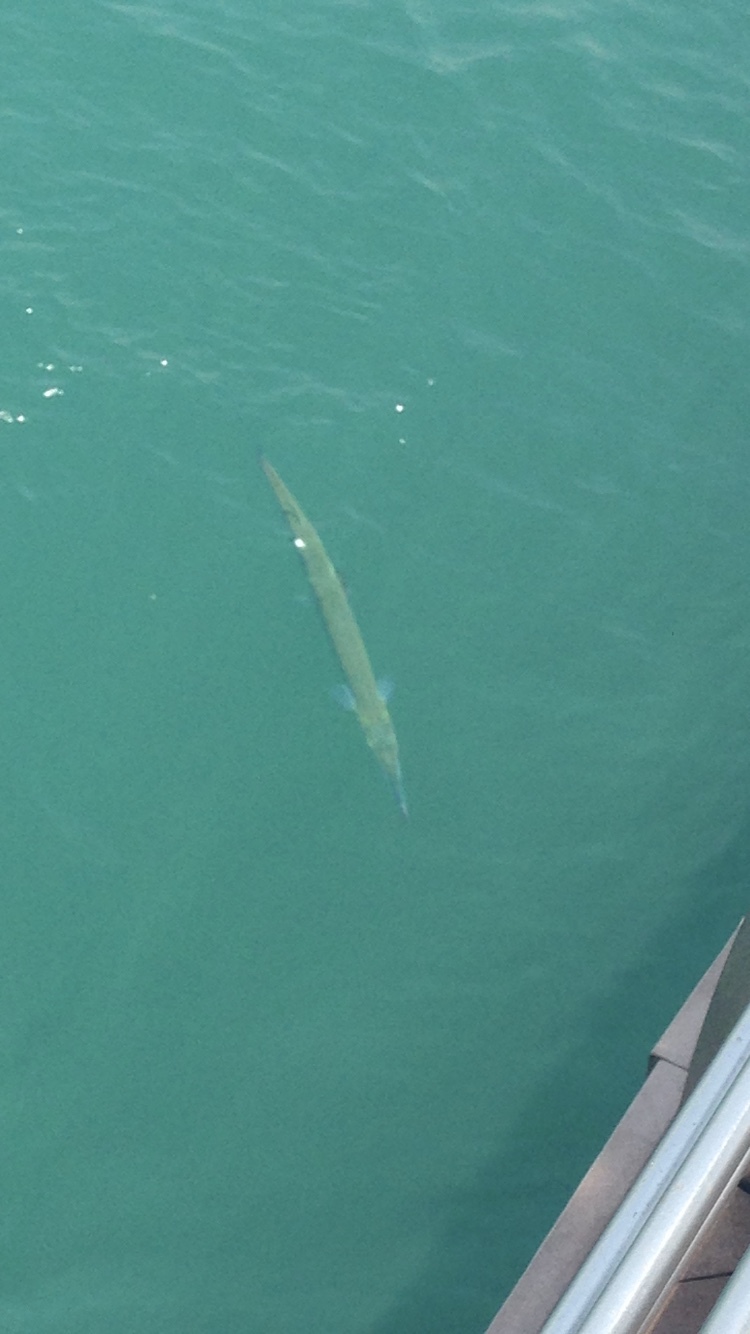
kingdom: Animalia
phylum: Chordata
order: Beloniformes
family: Belonidae
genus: Tylosurus
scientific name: Tylosurus crocodilus
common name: Houndfish
